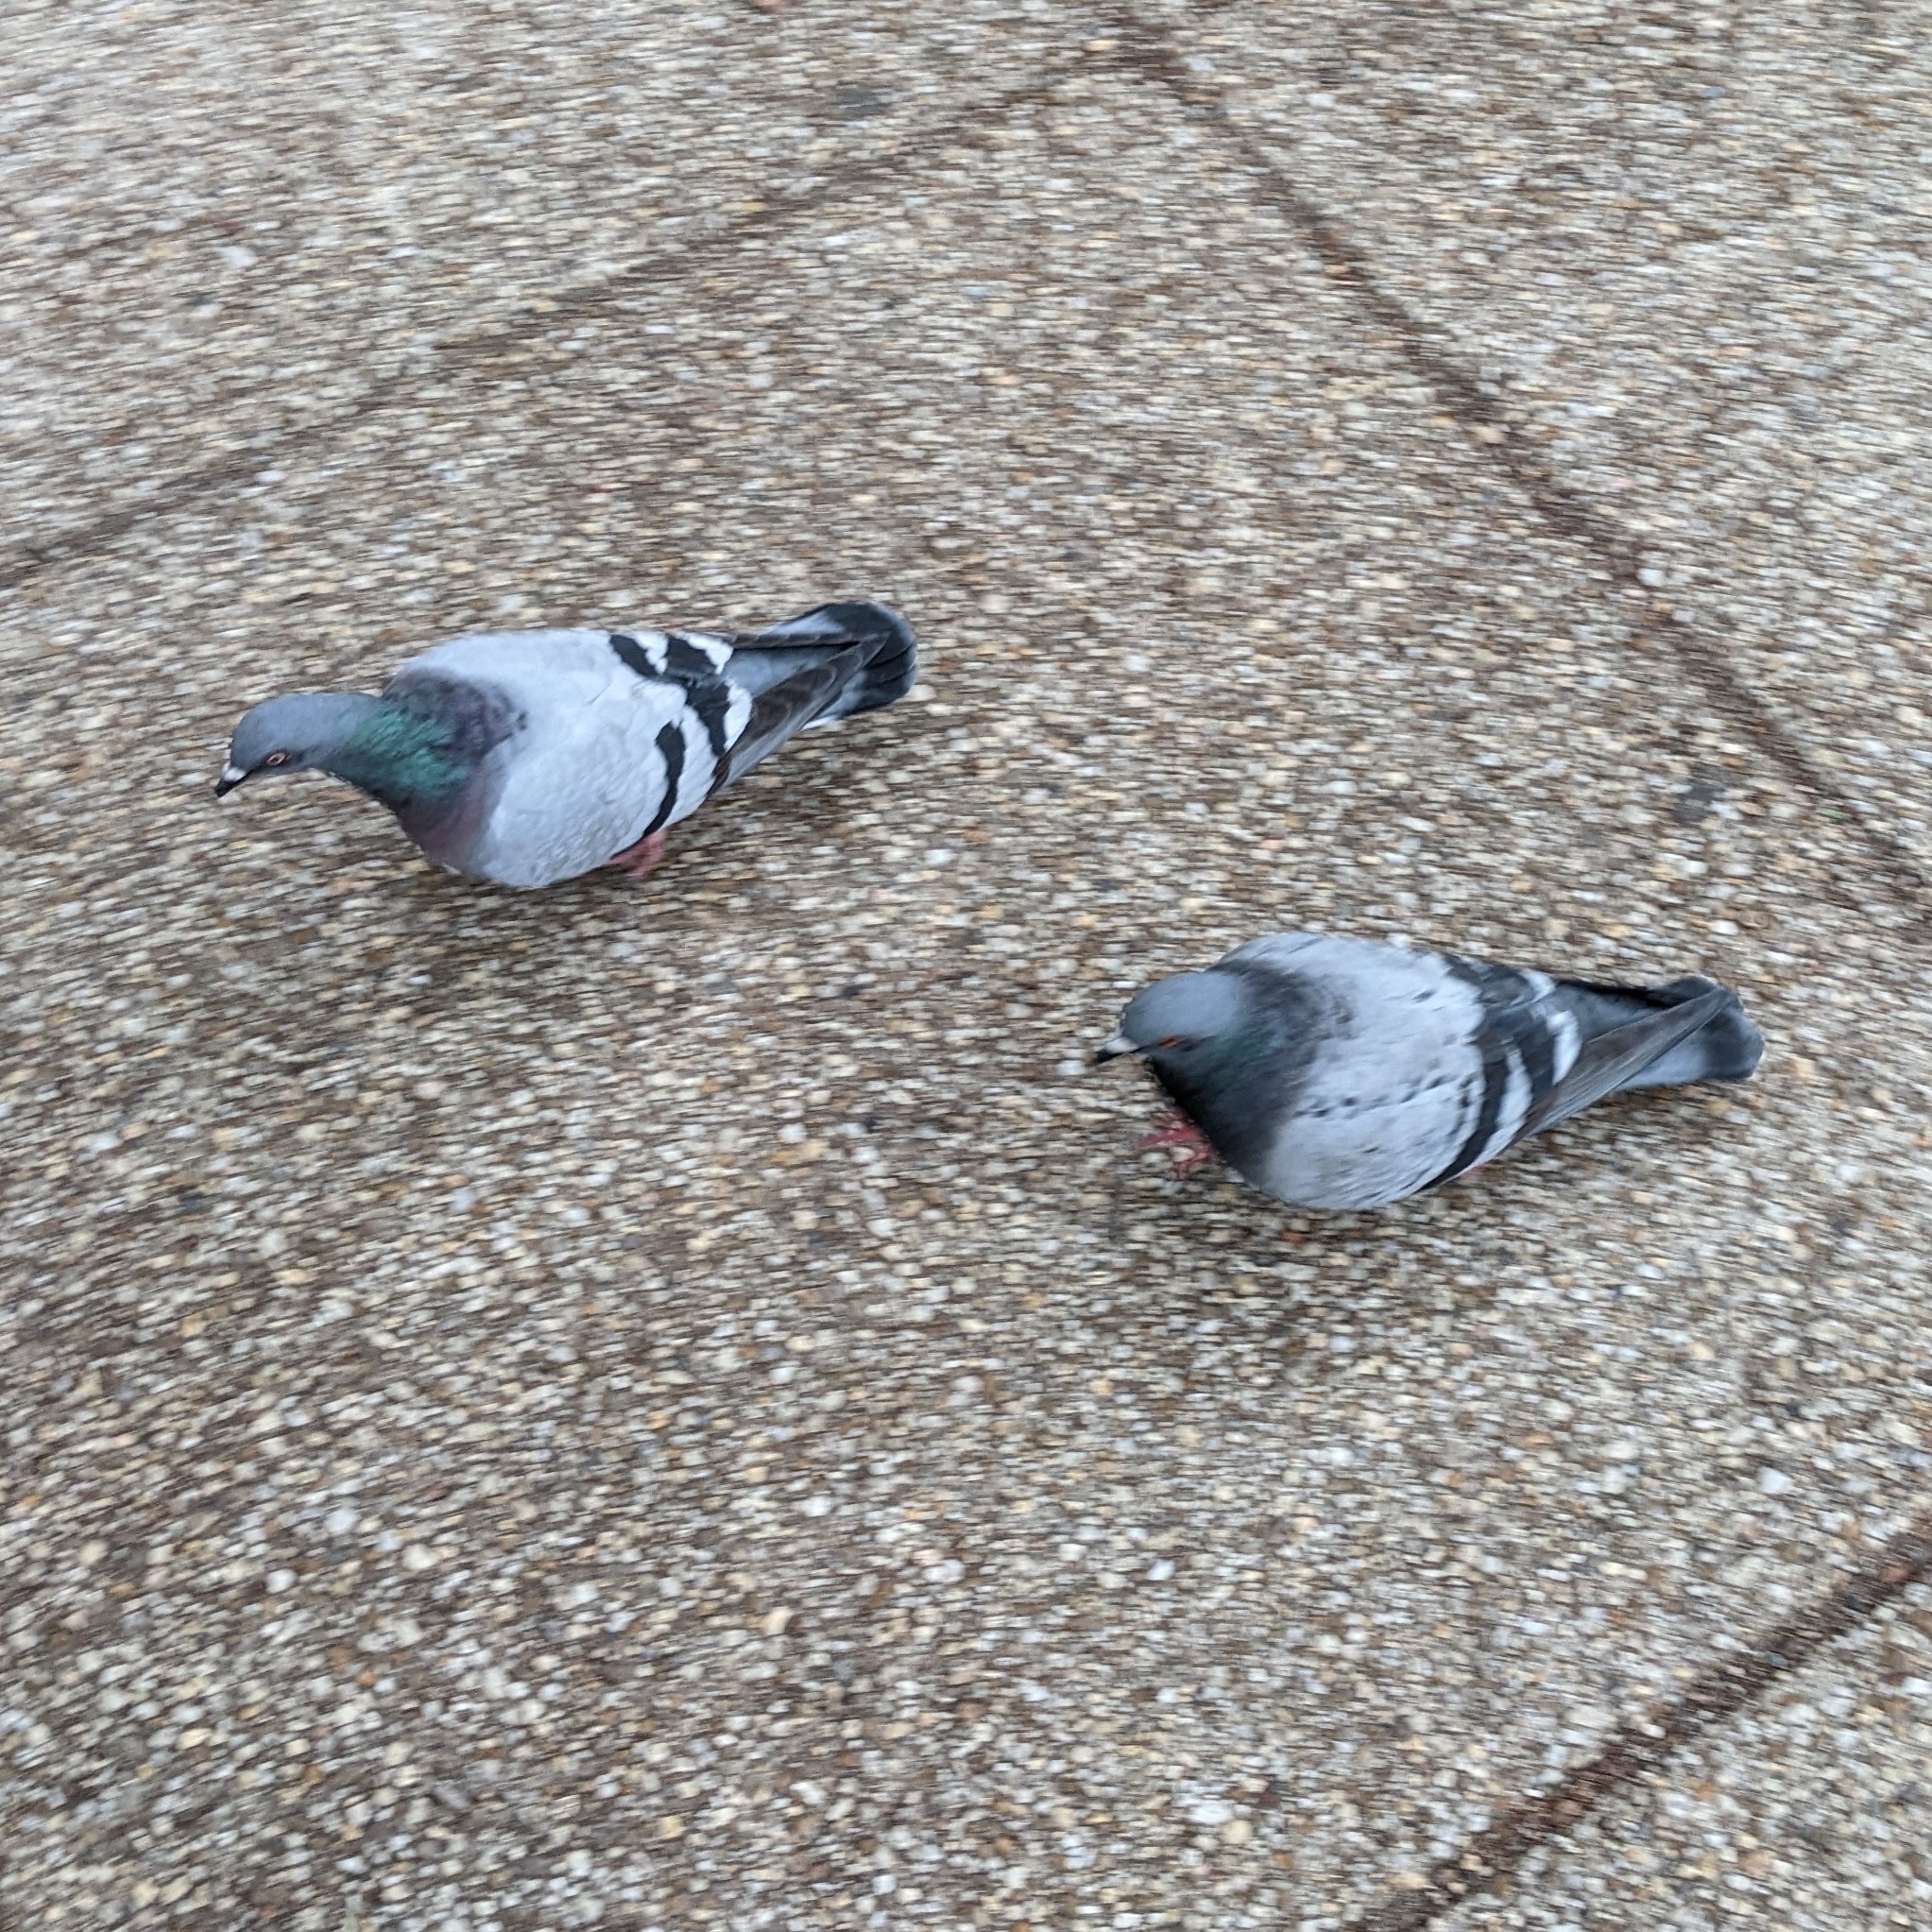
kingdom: Animalia
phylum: Chordata
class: Aves
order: Columbiformes
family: Columbidae
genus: Columba
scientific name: Columba livia
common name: Rock pigeon
